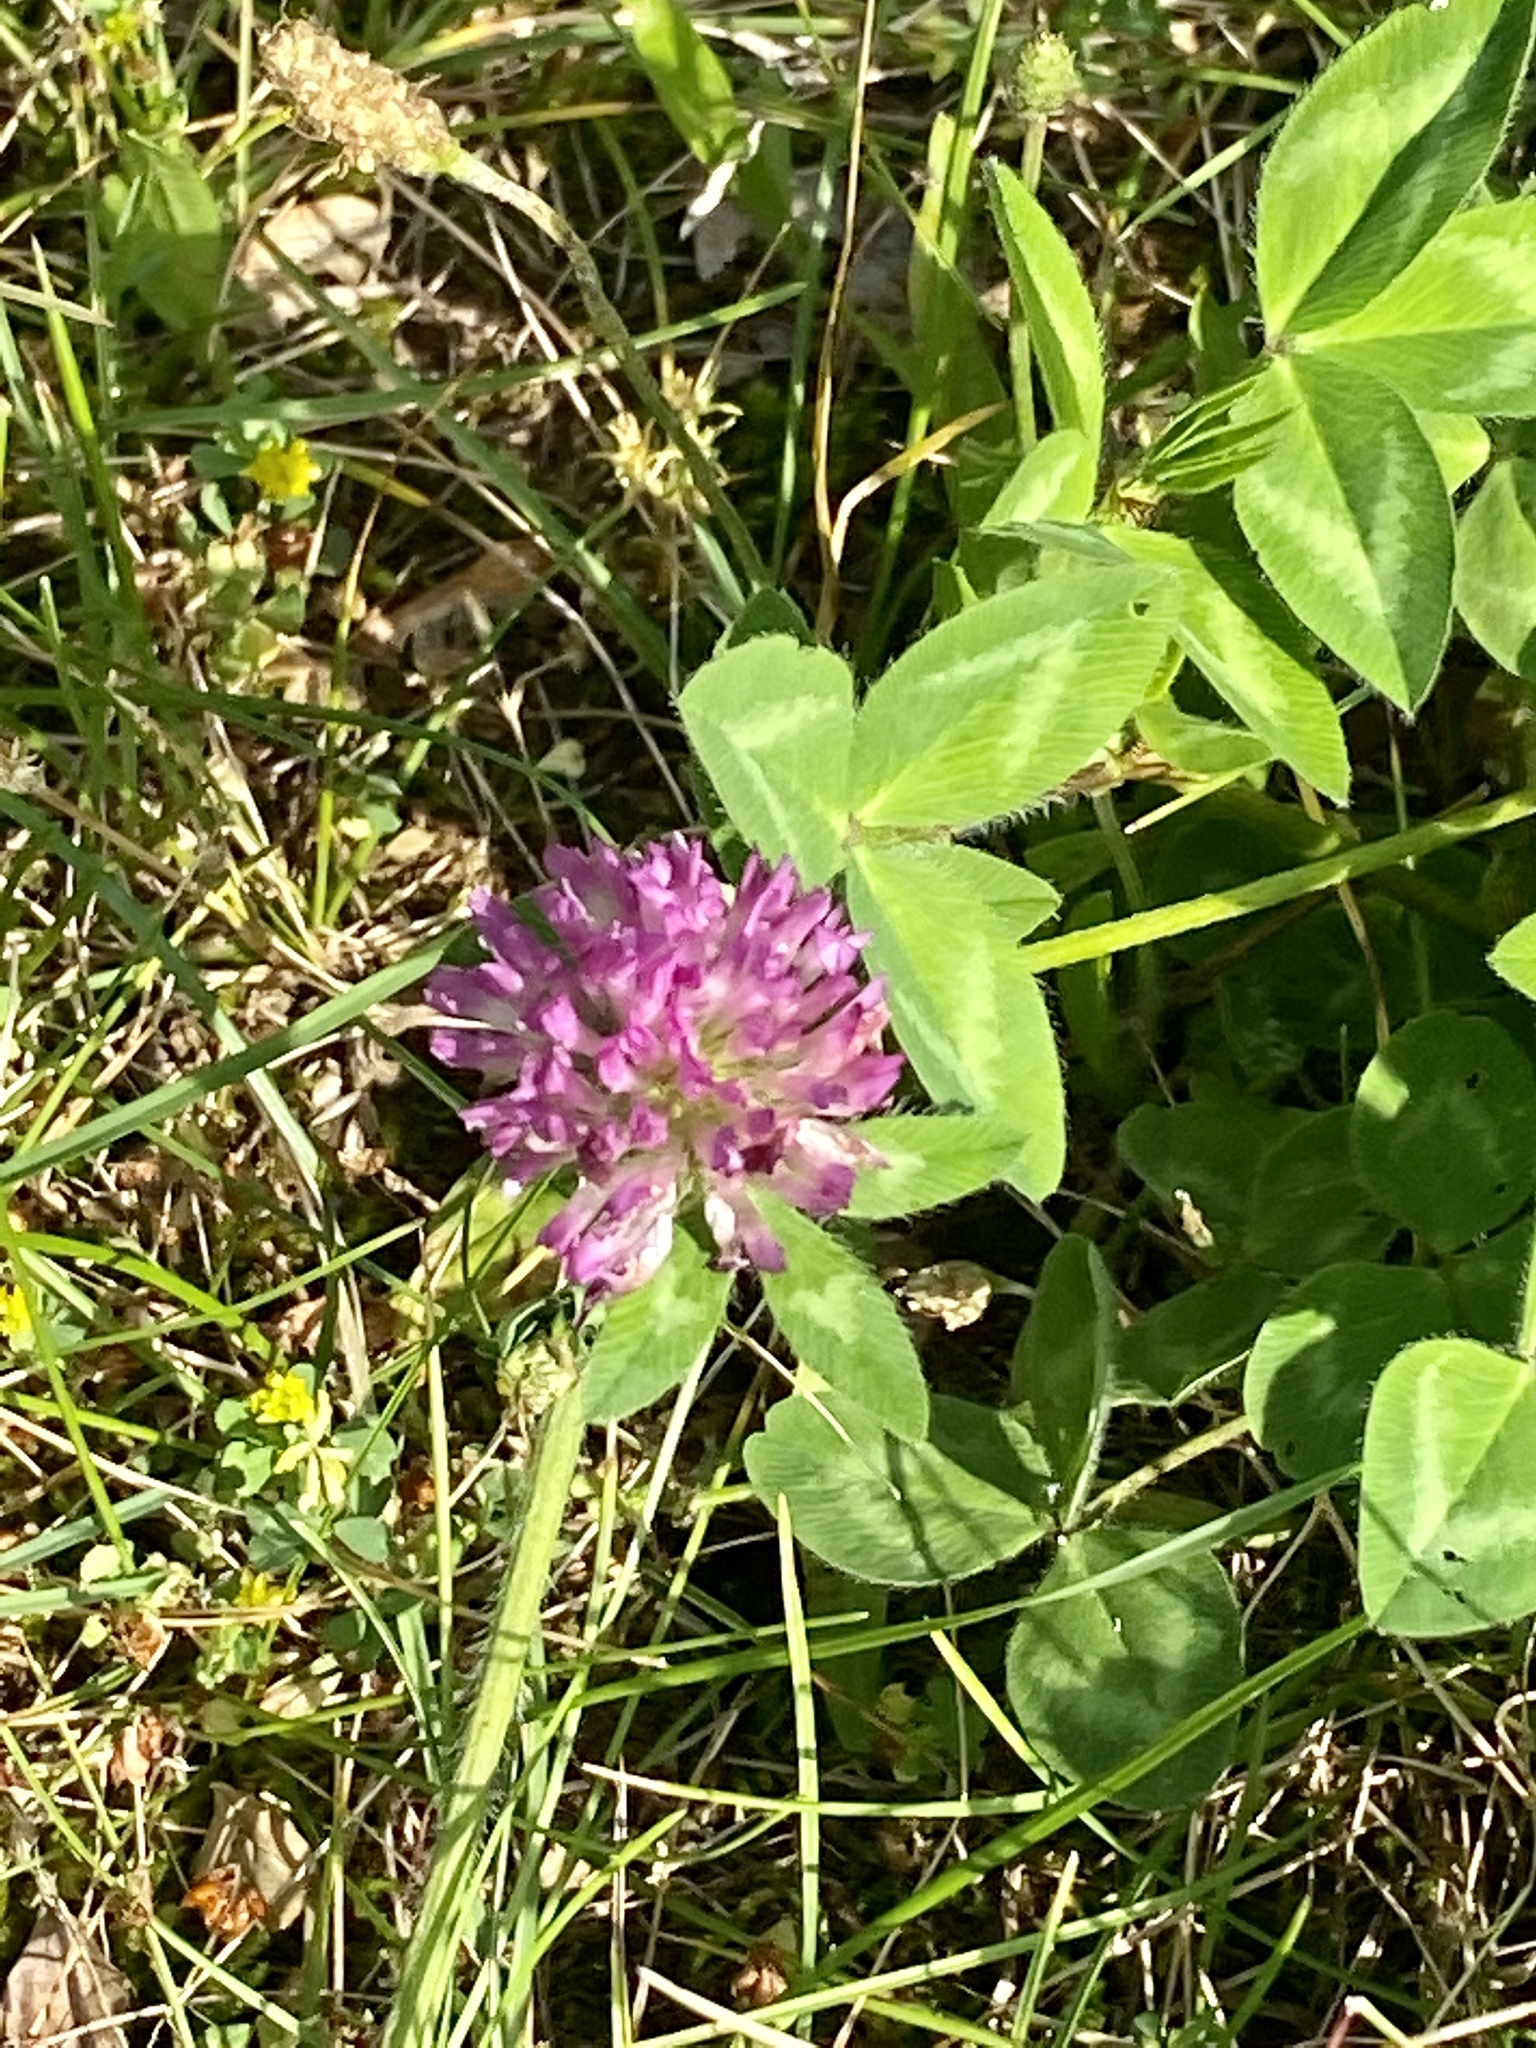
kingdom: Plantae
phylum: Tracheophyta
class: Magnoliopsida
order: Fabales
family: Fabaceae
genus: Trifolium
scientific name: Trifolium pratense
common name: Red clover
